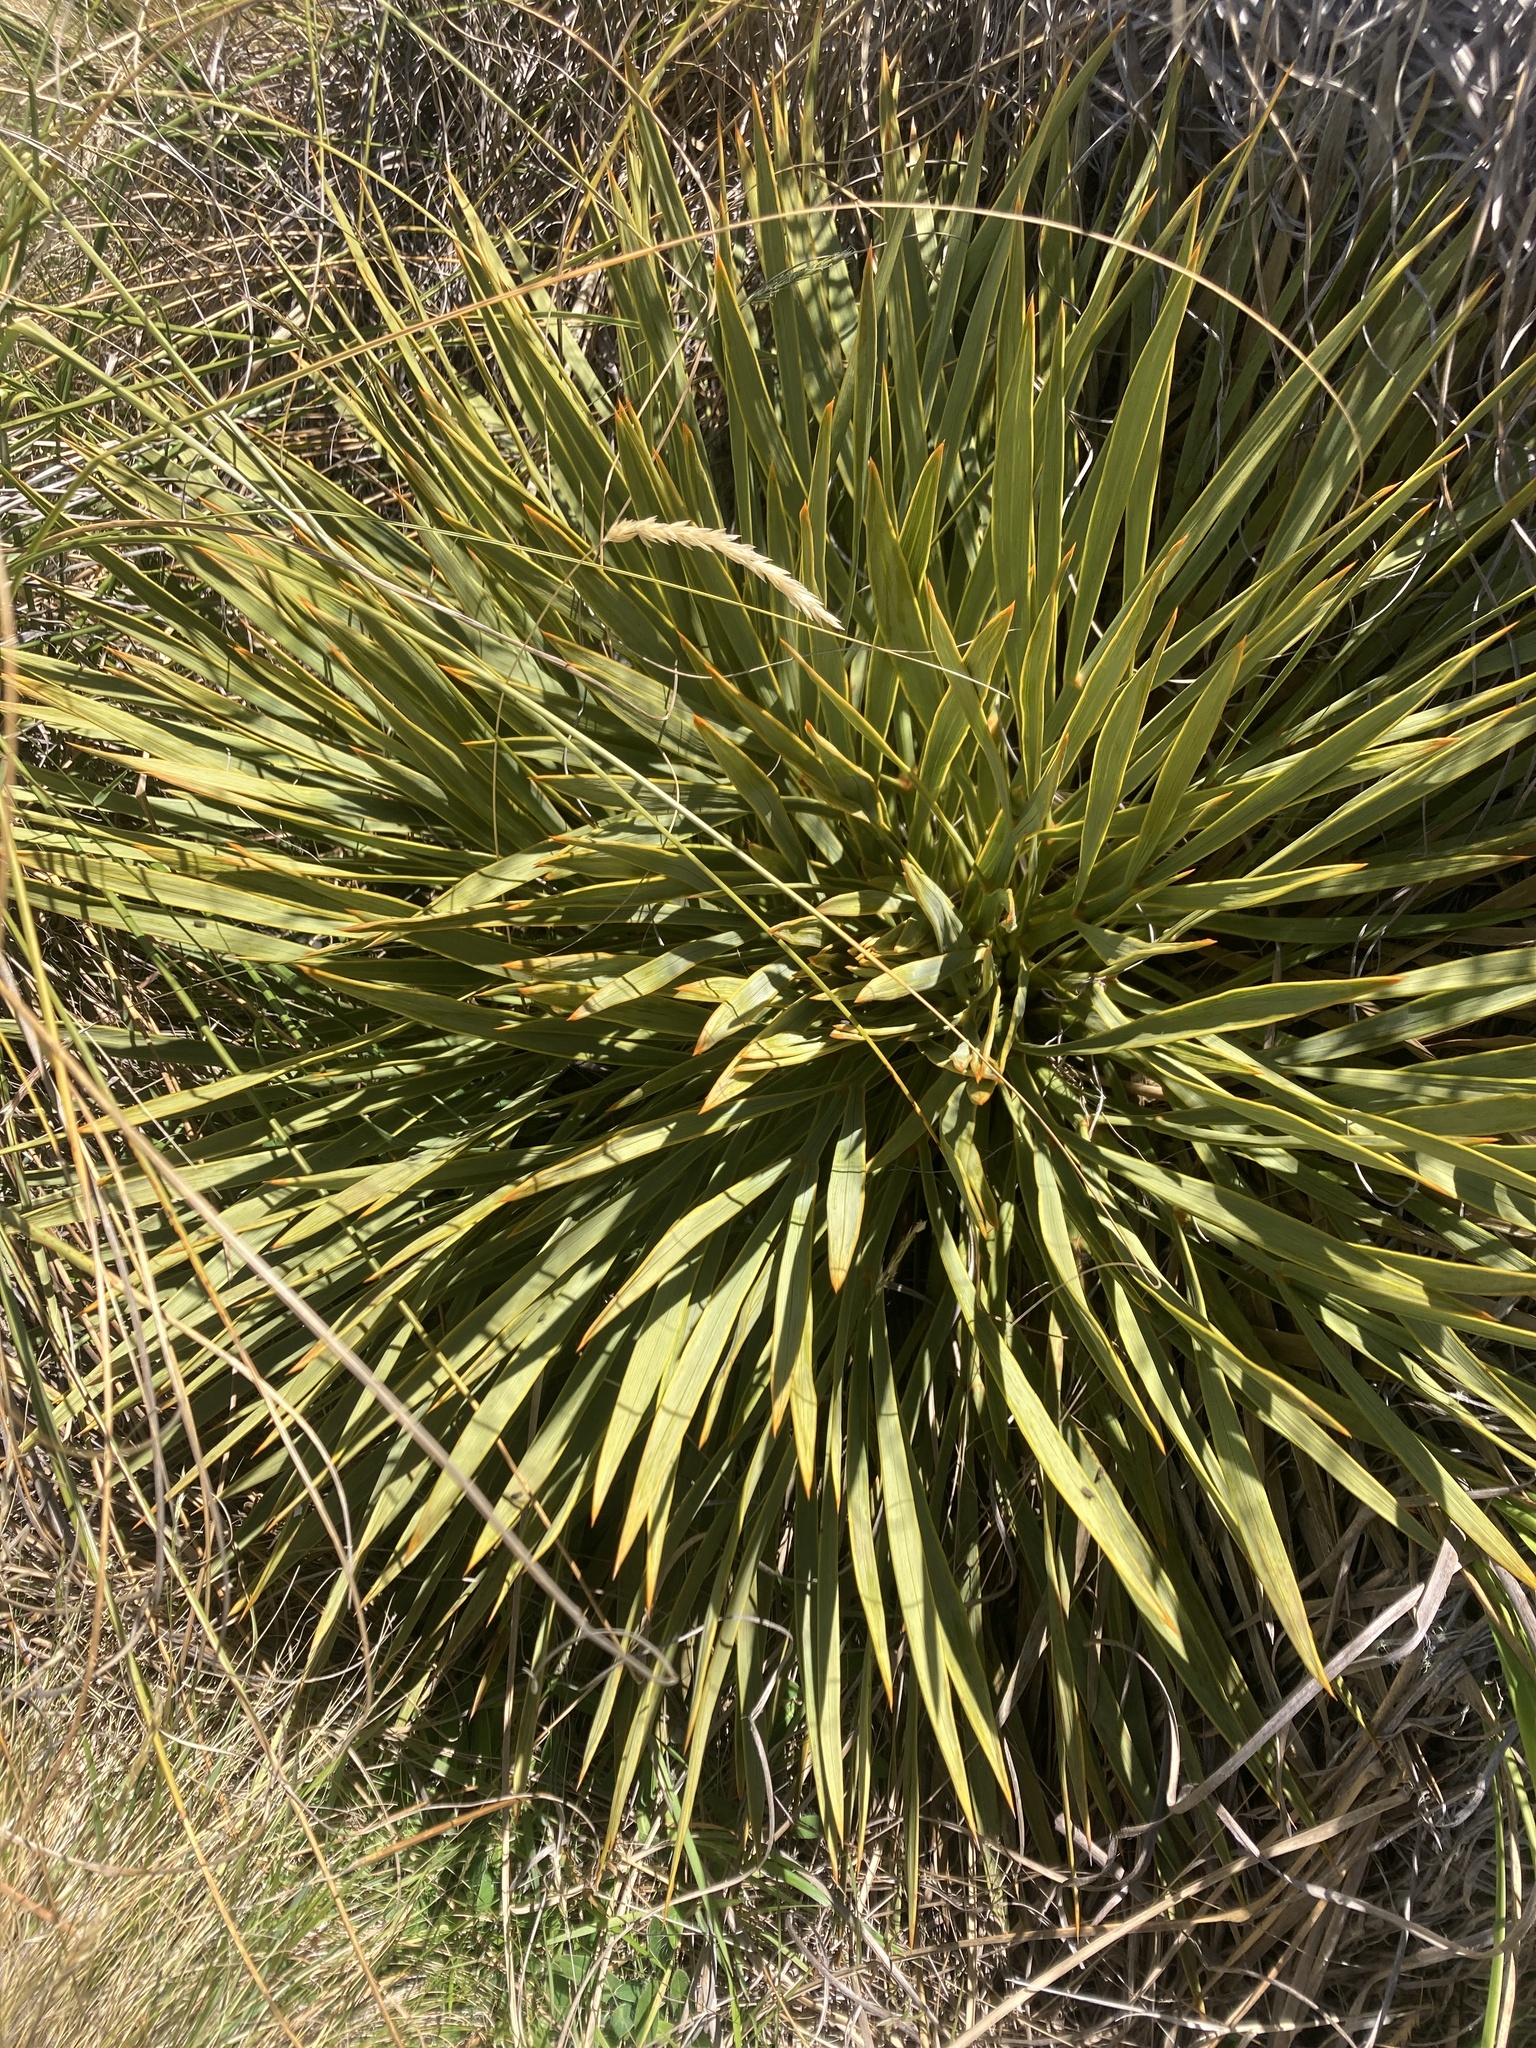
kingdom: Plantae
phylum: Tracheophyta
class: Magnoliopsida
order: Apiales
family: Apiaceae
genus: Aciphylla
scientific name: Aciphylla aurea
